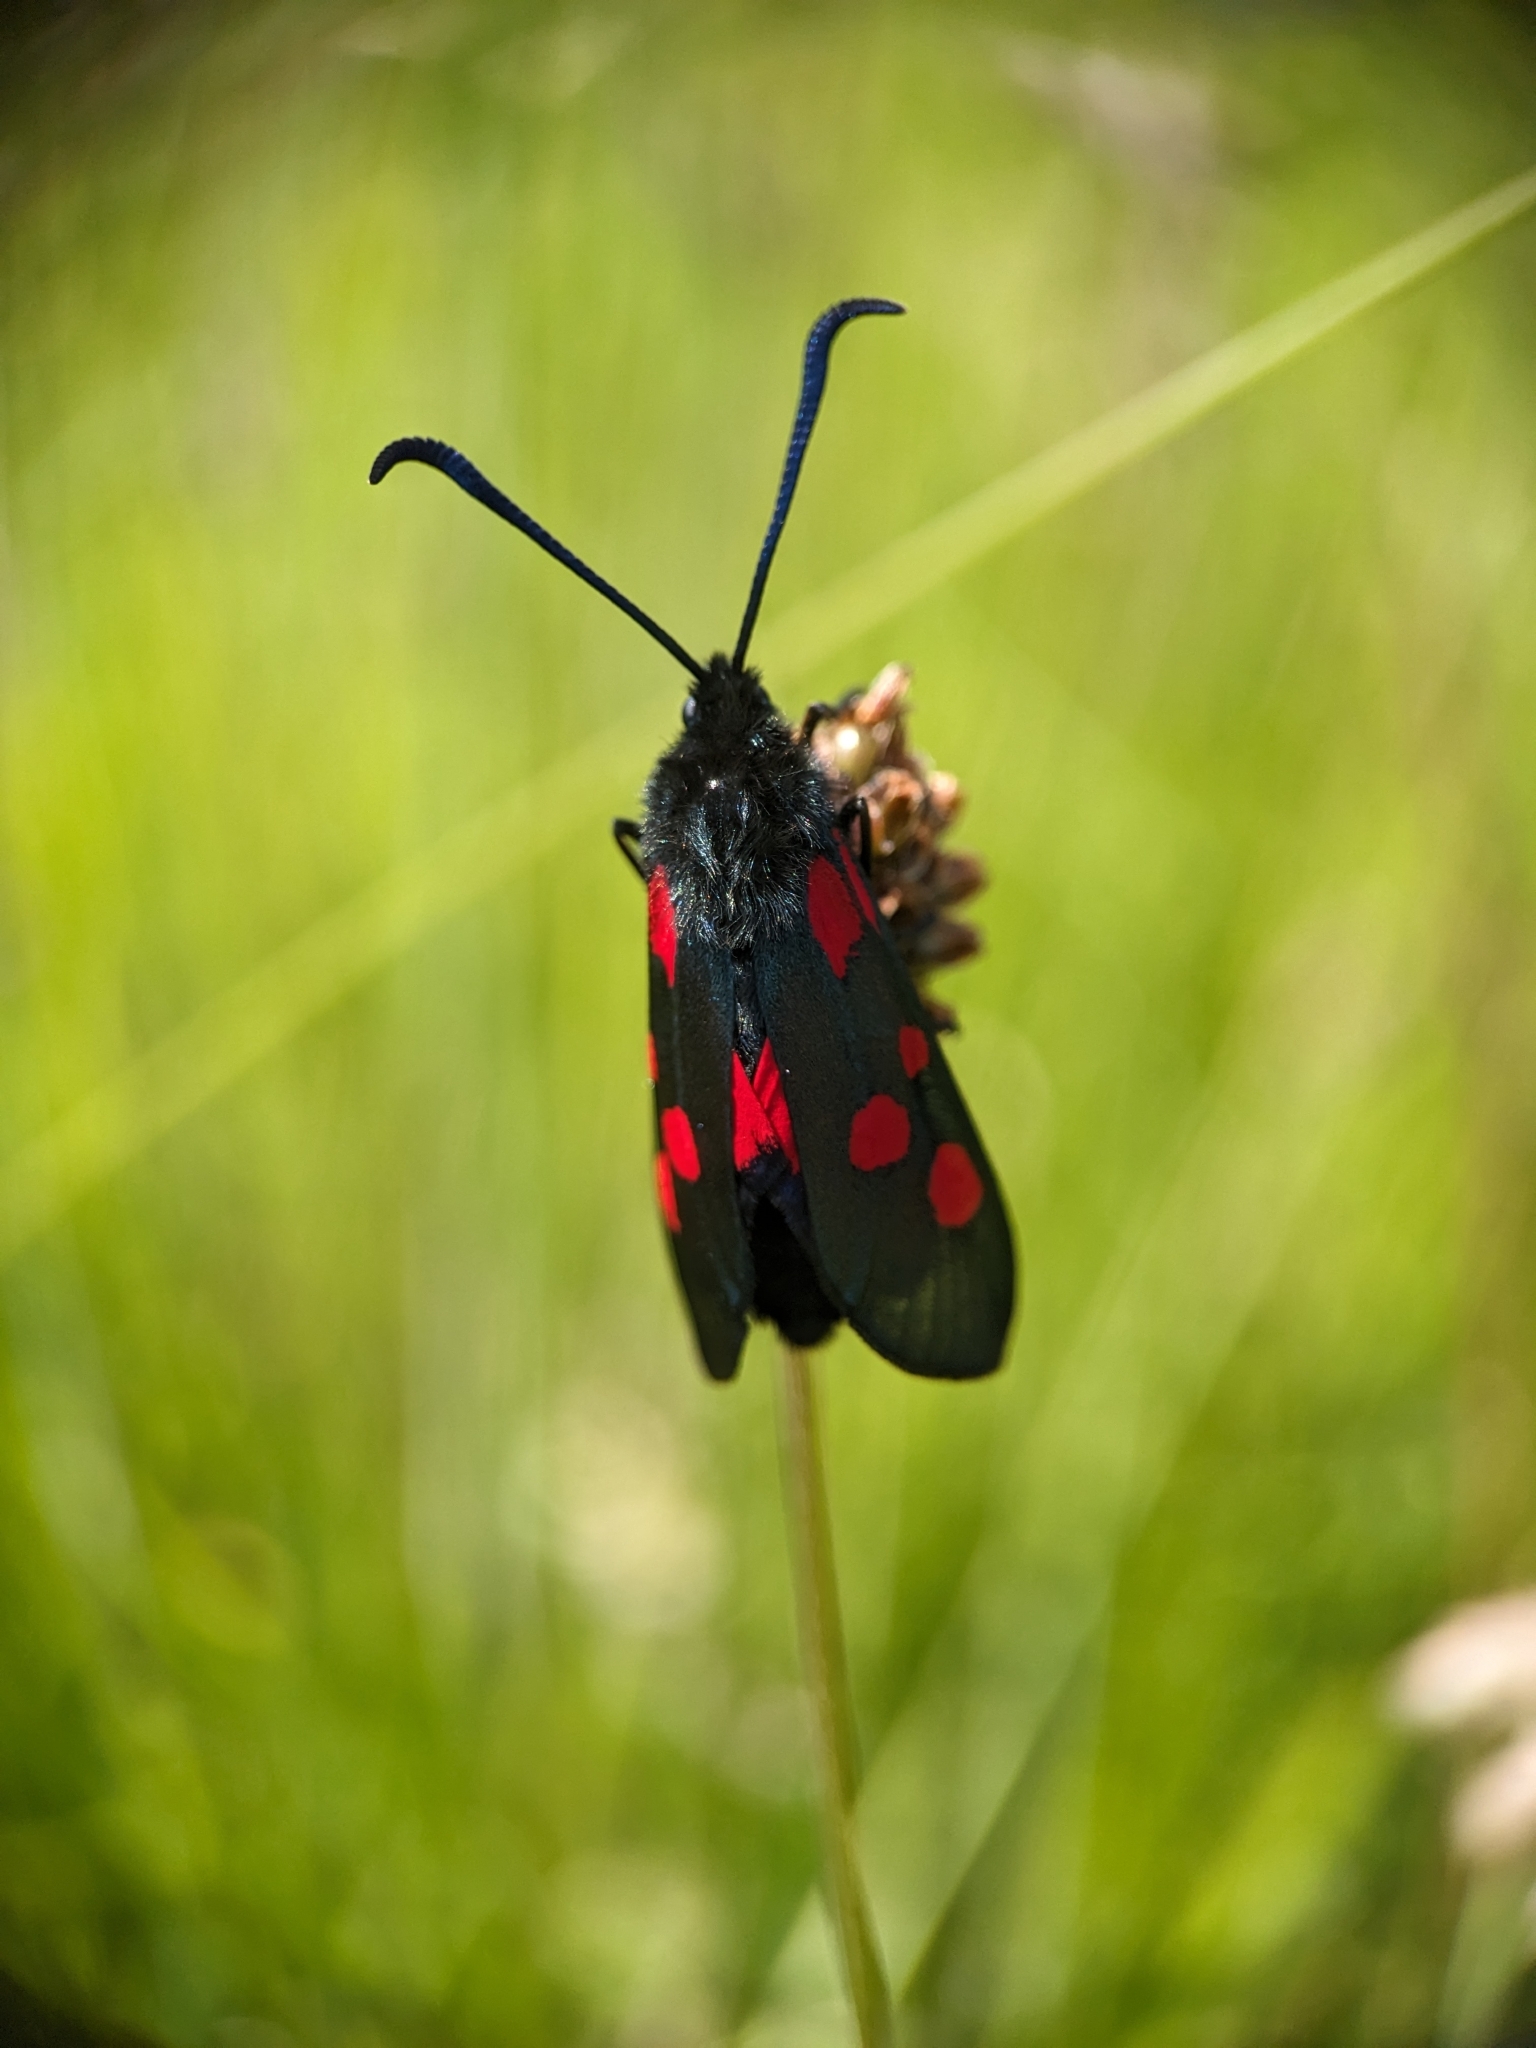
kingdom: Animalia
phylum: Arthropoda
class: Insecta
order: Lepidoptera
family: Zygaenidae
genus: Zygaena
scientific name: Zygaena lonicerae
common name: Narrow-bordered five-spot burnet
